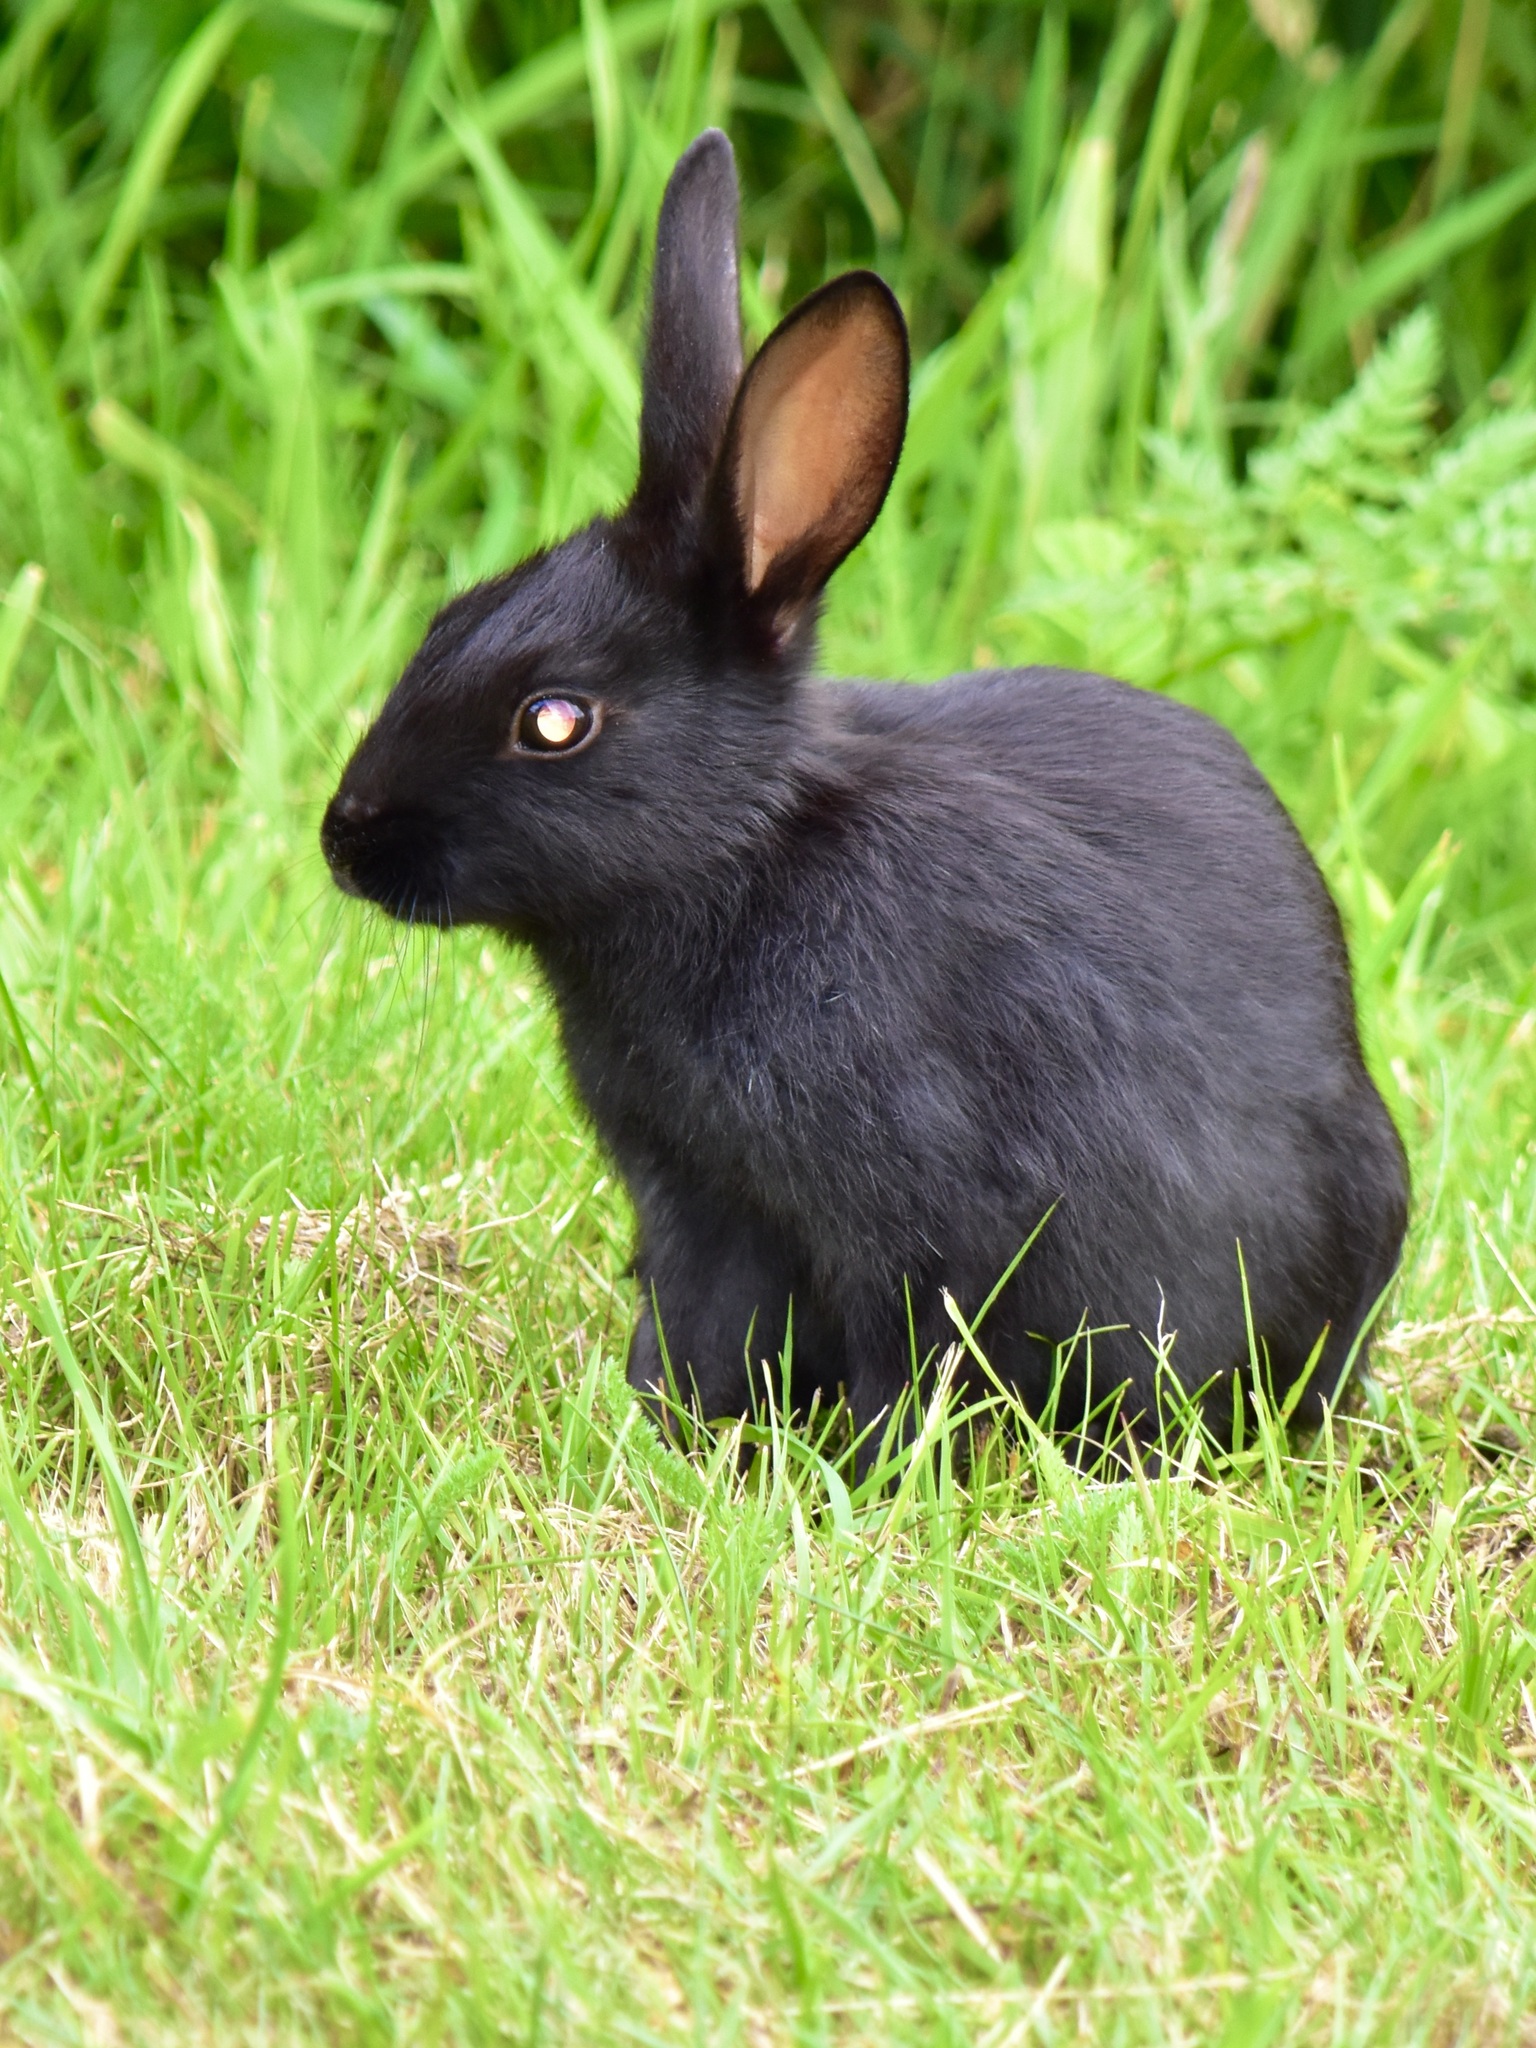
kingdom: Animalia
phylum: Chordata
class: Mammalia
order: Lagomorpha
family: Leporidae
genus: Oryctolagus
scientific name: Oryctolagus cuniculus
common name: European rabbit
